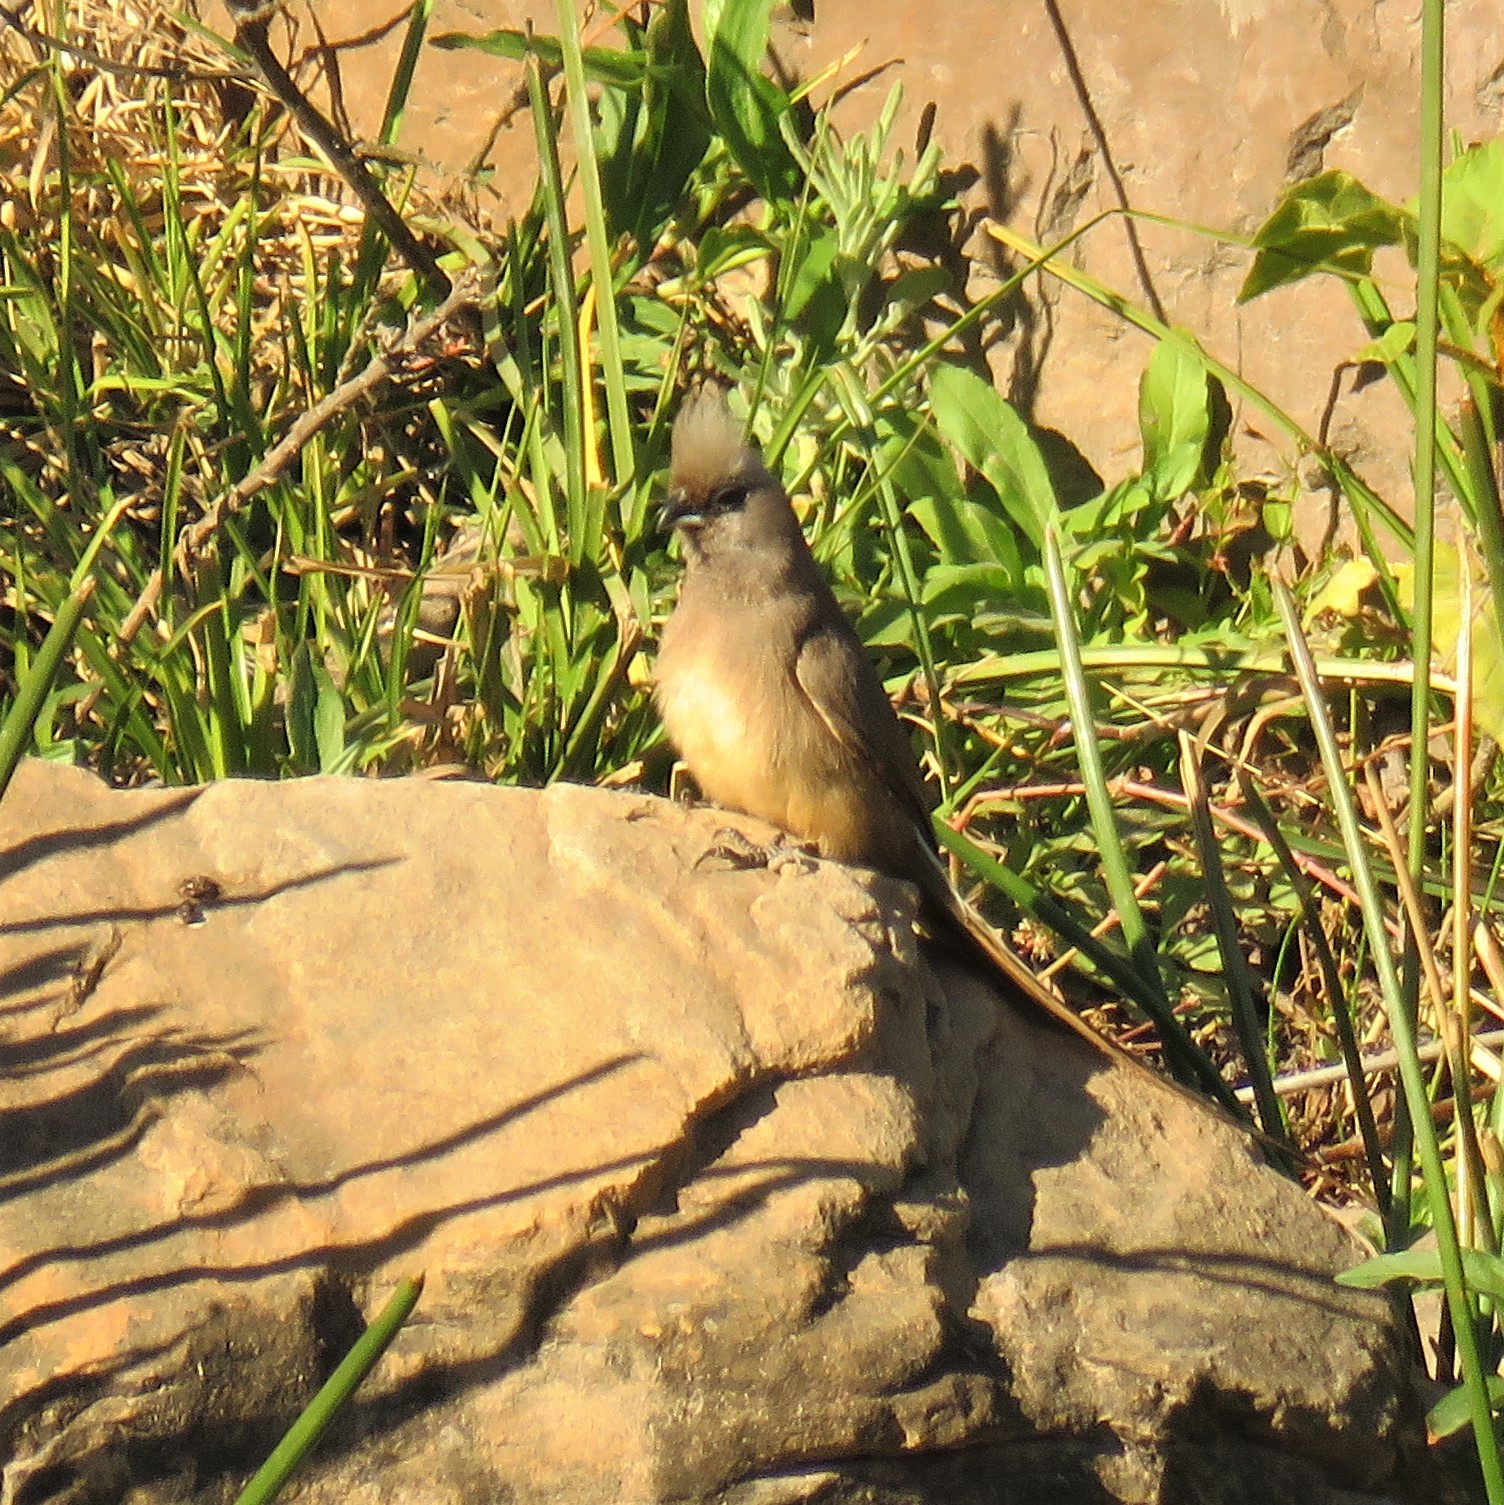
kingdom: Animalia
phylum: Chordata
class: Aves
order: Coliiformes
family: Coliidae
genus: Colius
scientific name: Colius striatus
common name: Speckled mousebird
